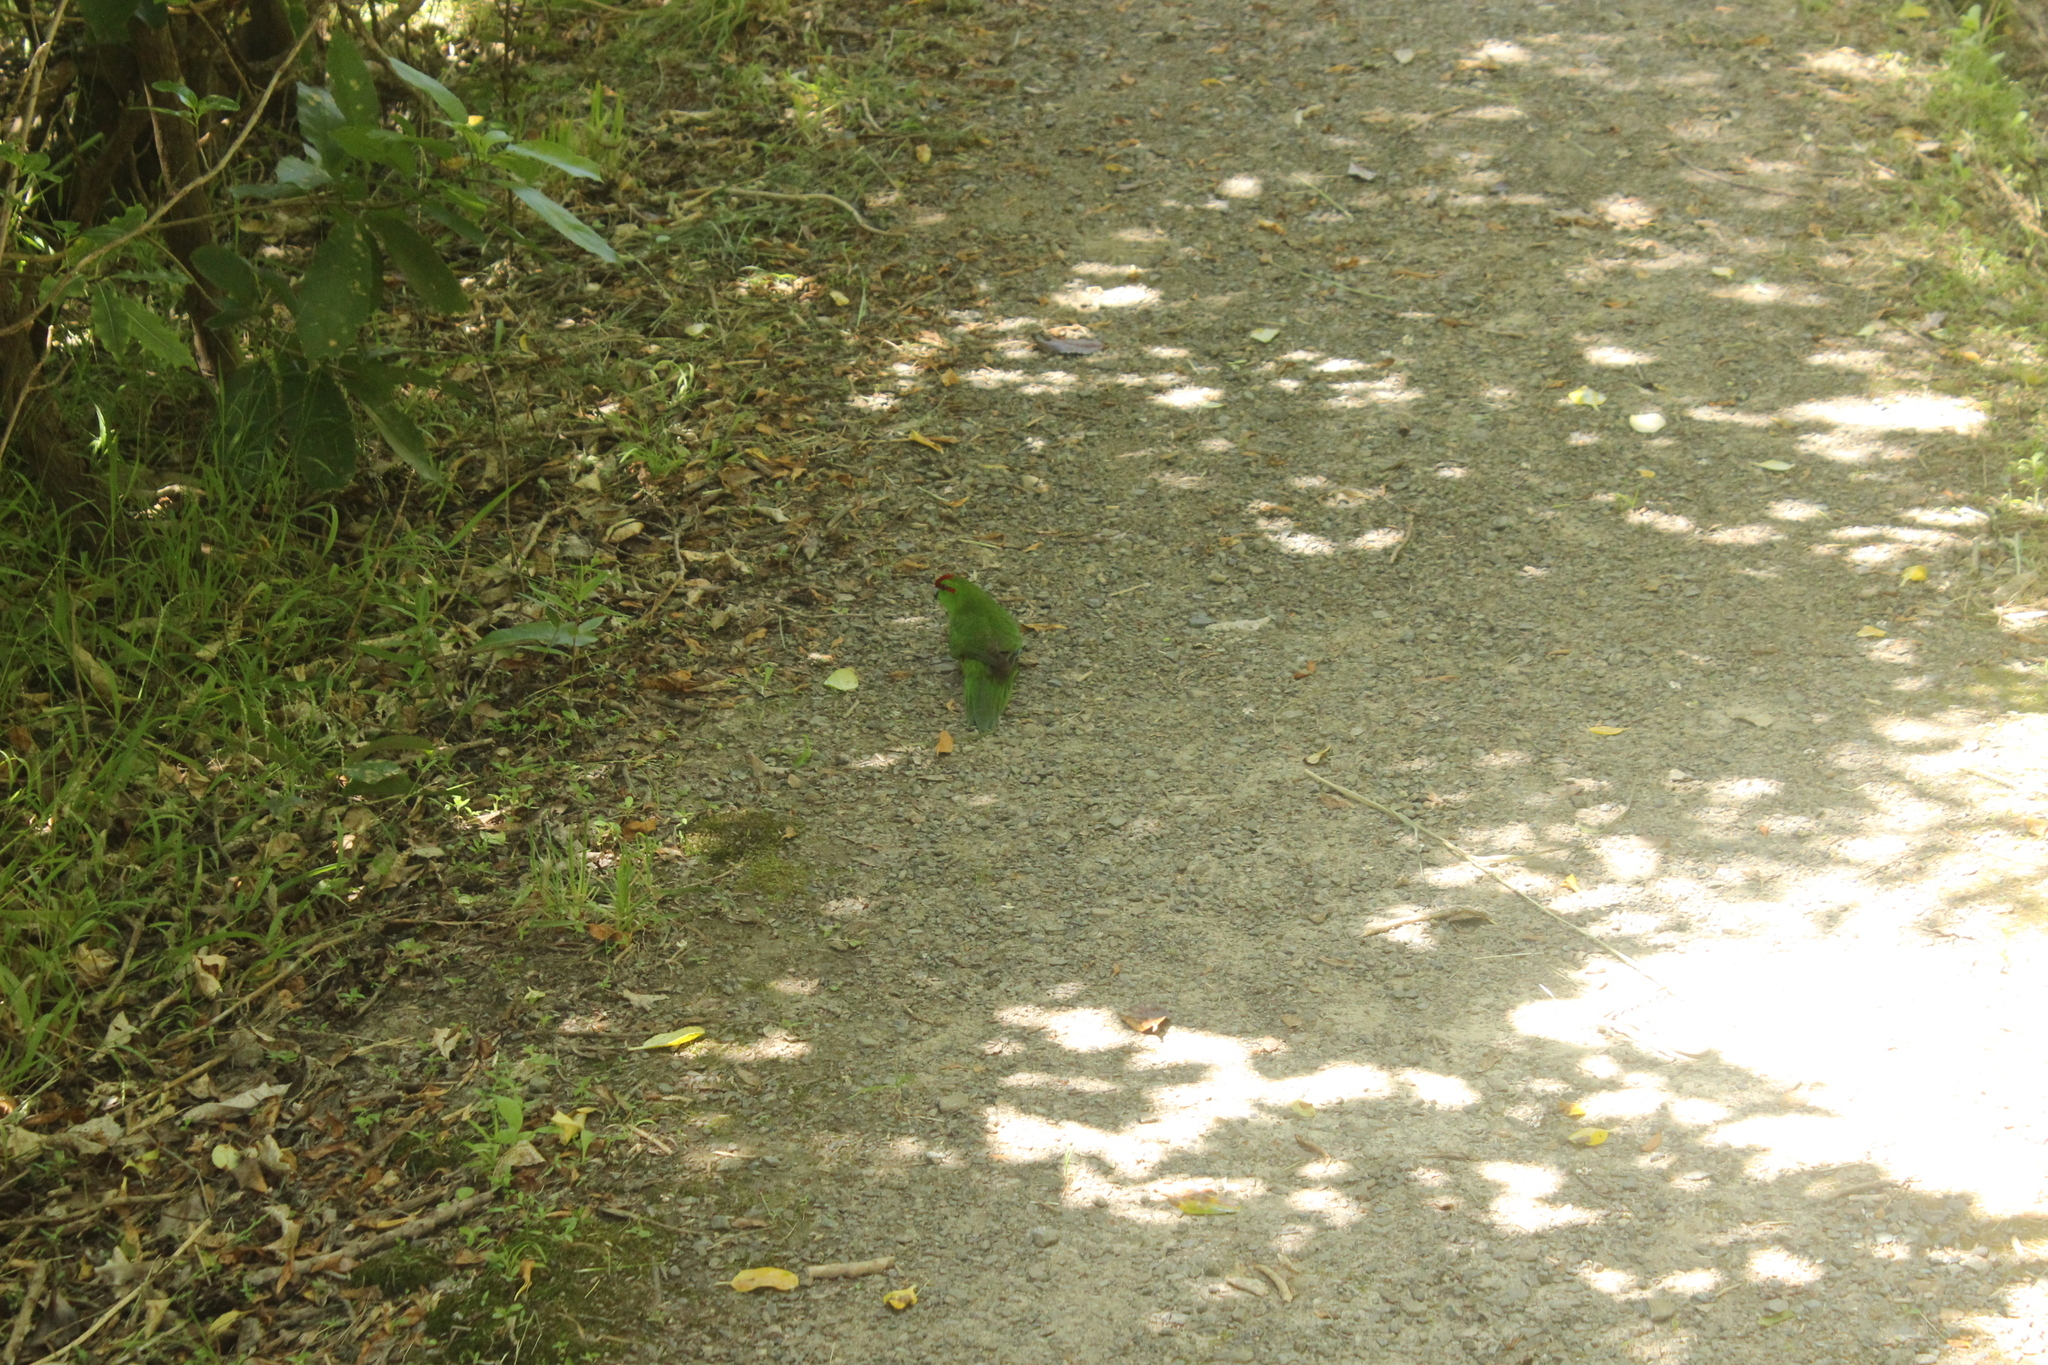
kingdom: Animalia
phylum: Chordata
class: Aves
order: Psittaciformes
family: Psittacidae
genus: Cyanoramphus
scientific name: Cyanoramphus novaezelandiae
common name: Red-fronted parakeet
